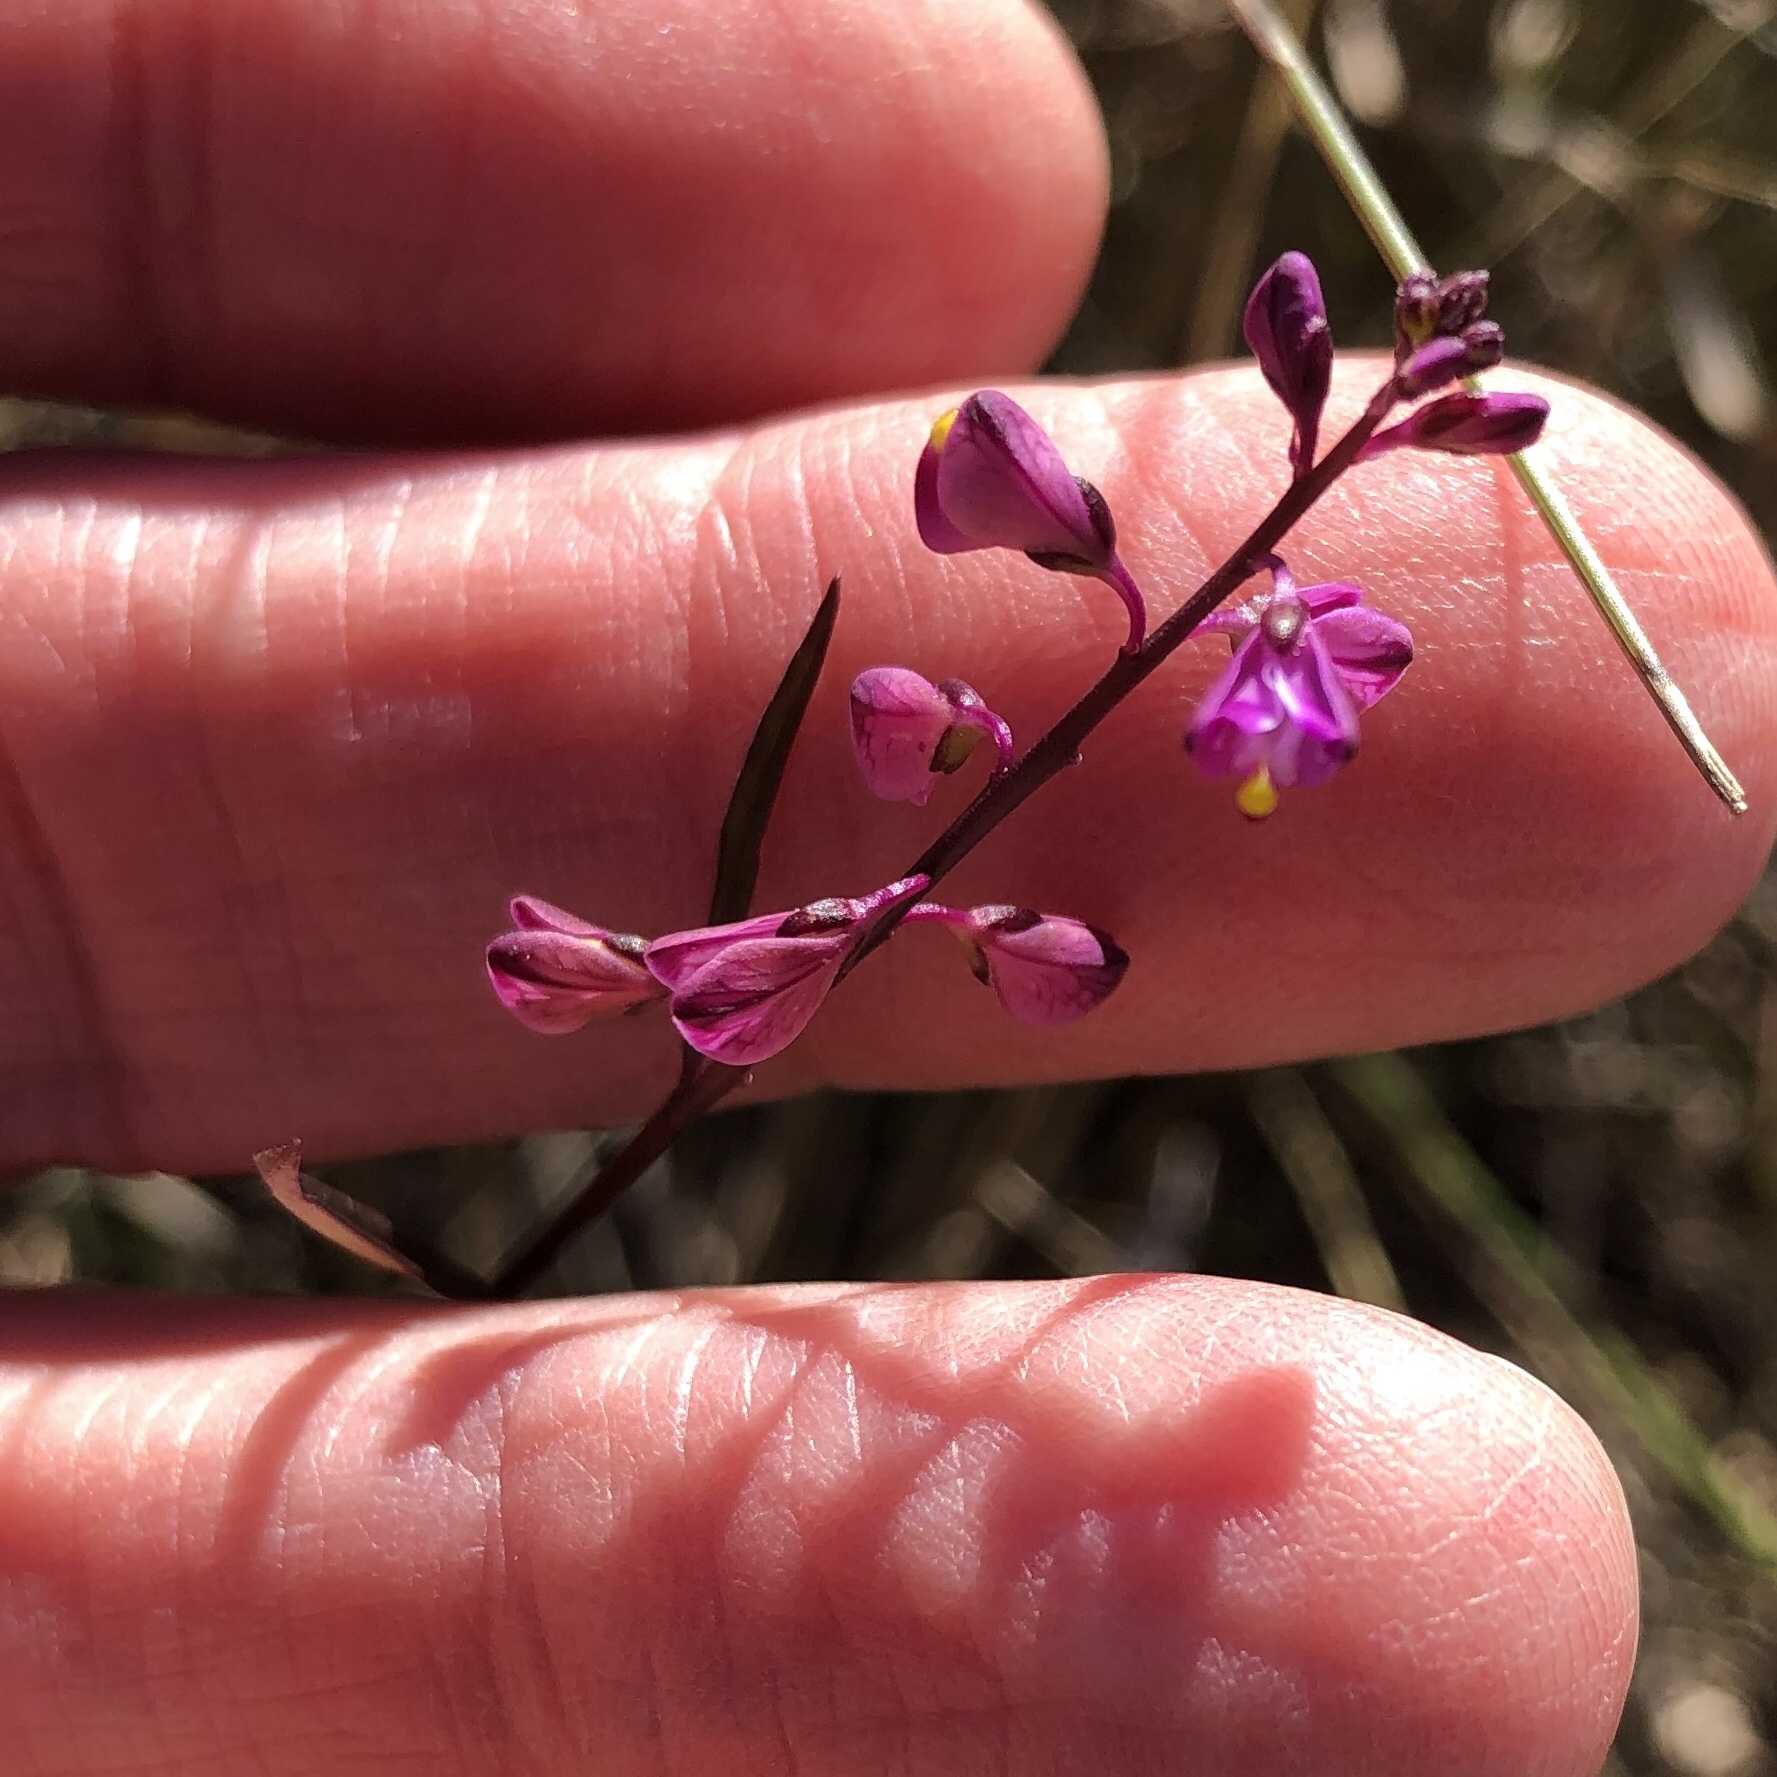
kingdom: Plantae
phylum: Tracheophyta
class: Magnoliopsida
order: Fabales
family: Polygalaceae
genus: Asemeia
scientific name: Asemeia grandiflora
